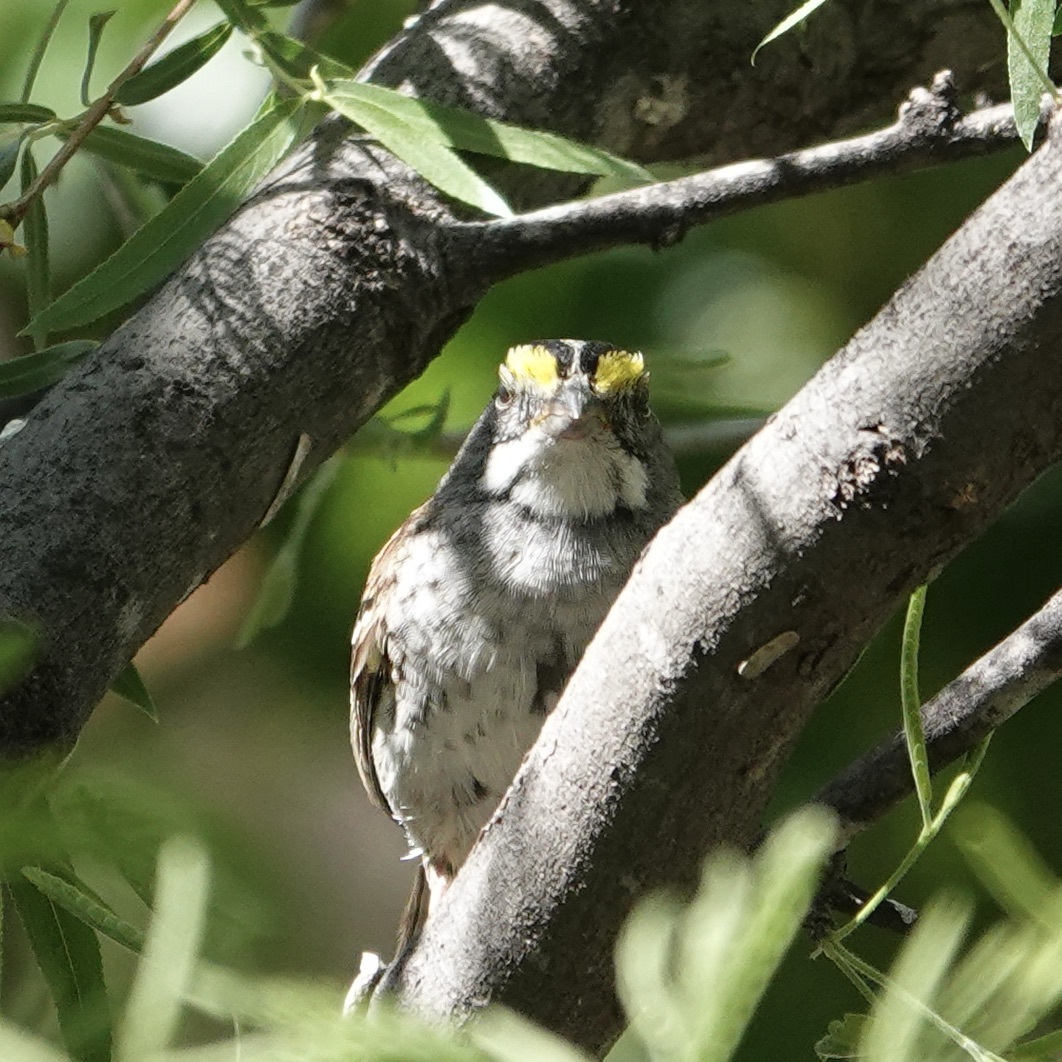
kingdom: Animalia
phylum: Chordata
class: Aves
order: Passeriformes
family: Passerellidae
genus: Zonotrichia
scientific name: Zonotrichia albicollis
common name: White-throated sparrow
